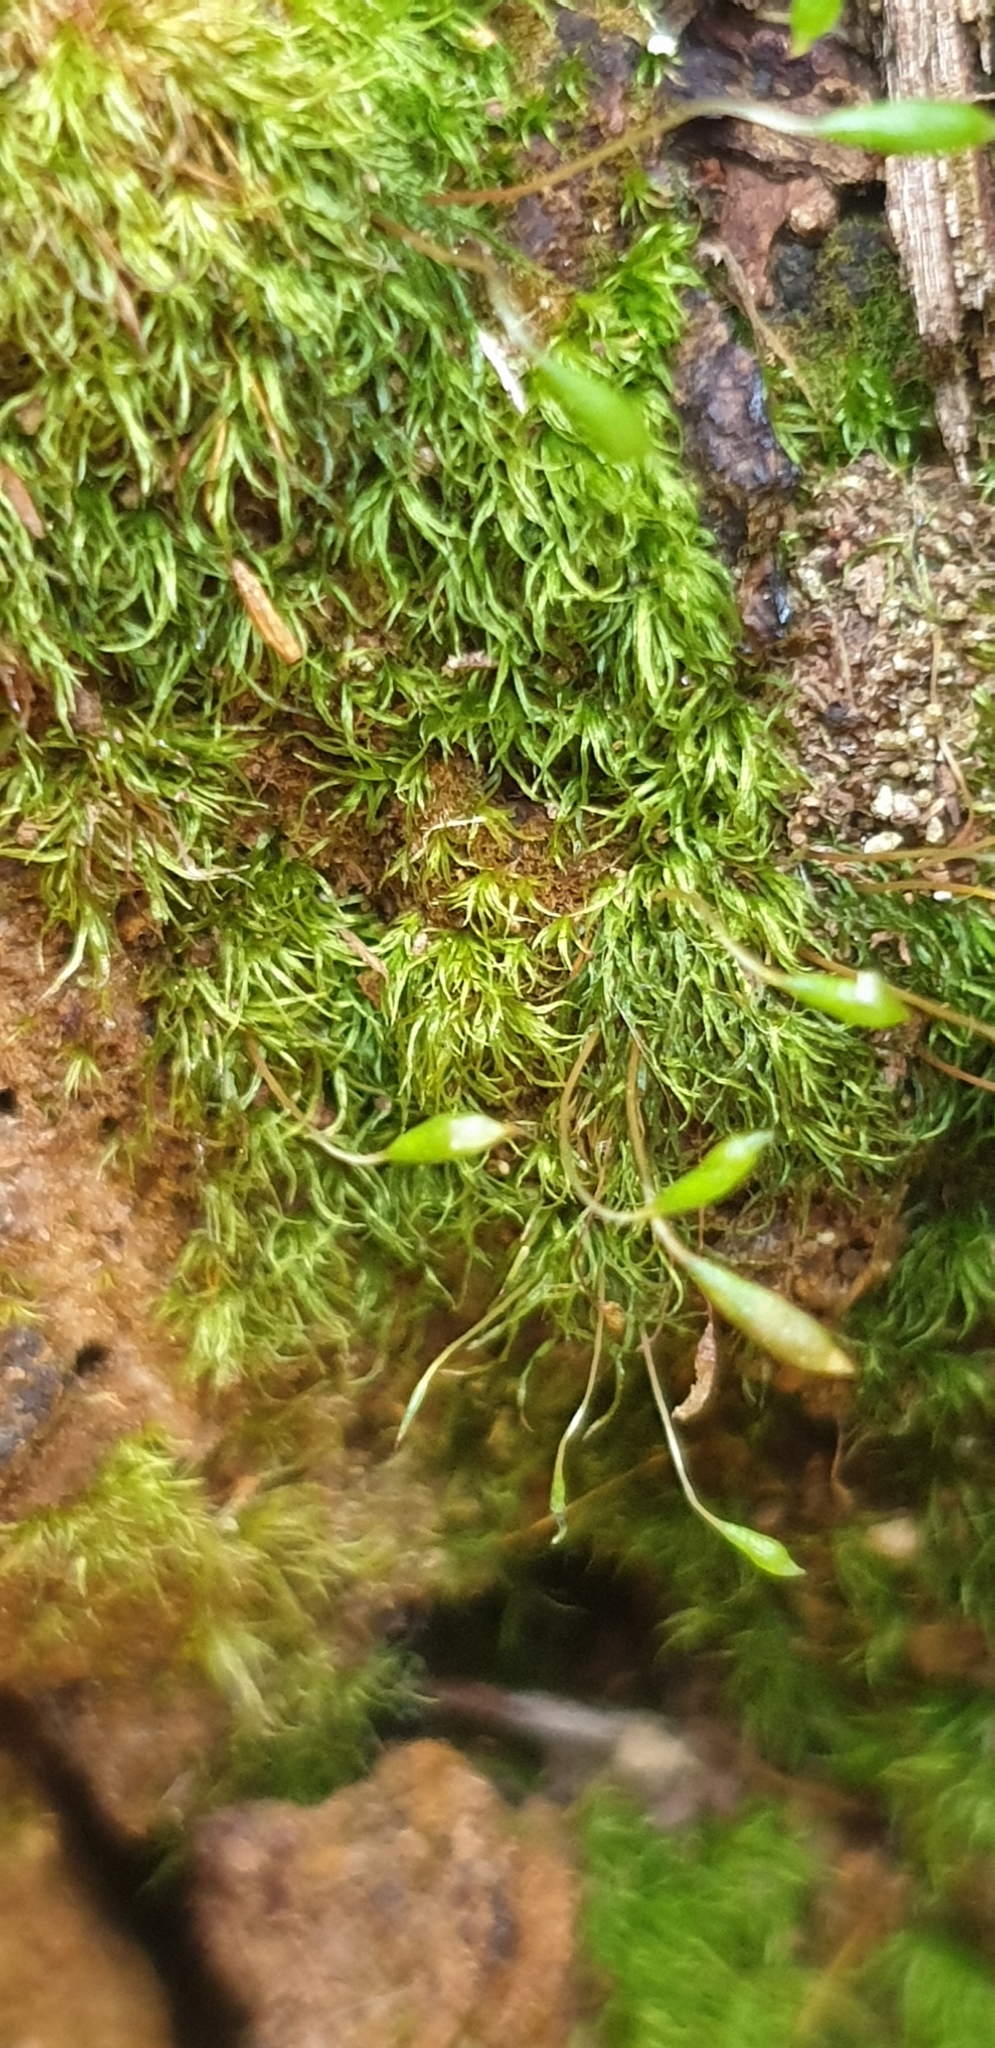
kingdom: Plantae
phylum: Bryophyta
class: Bryopsida
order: Orthodontiales
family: Orthodontiaceae
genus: Orthodontium
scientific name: Orthodontium lineare
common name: Cape thread-moss
